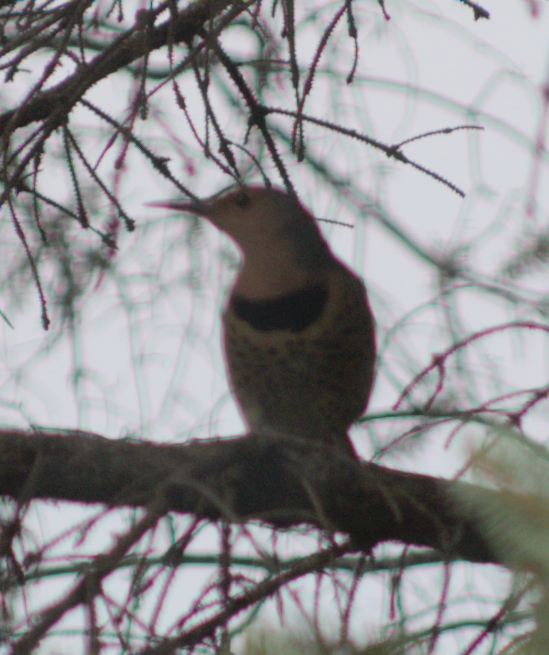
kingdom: Animalia
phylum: Chordata
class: Aves
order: Piciformes
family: Picidae
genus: Colaptes
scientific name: Colaptes auratus
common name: Northern flicker
